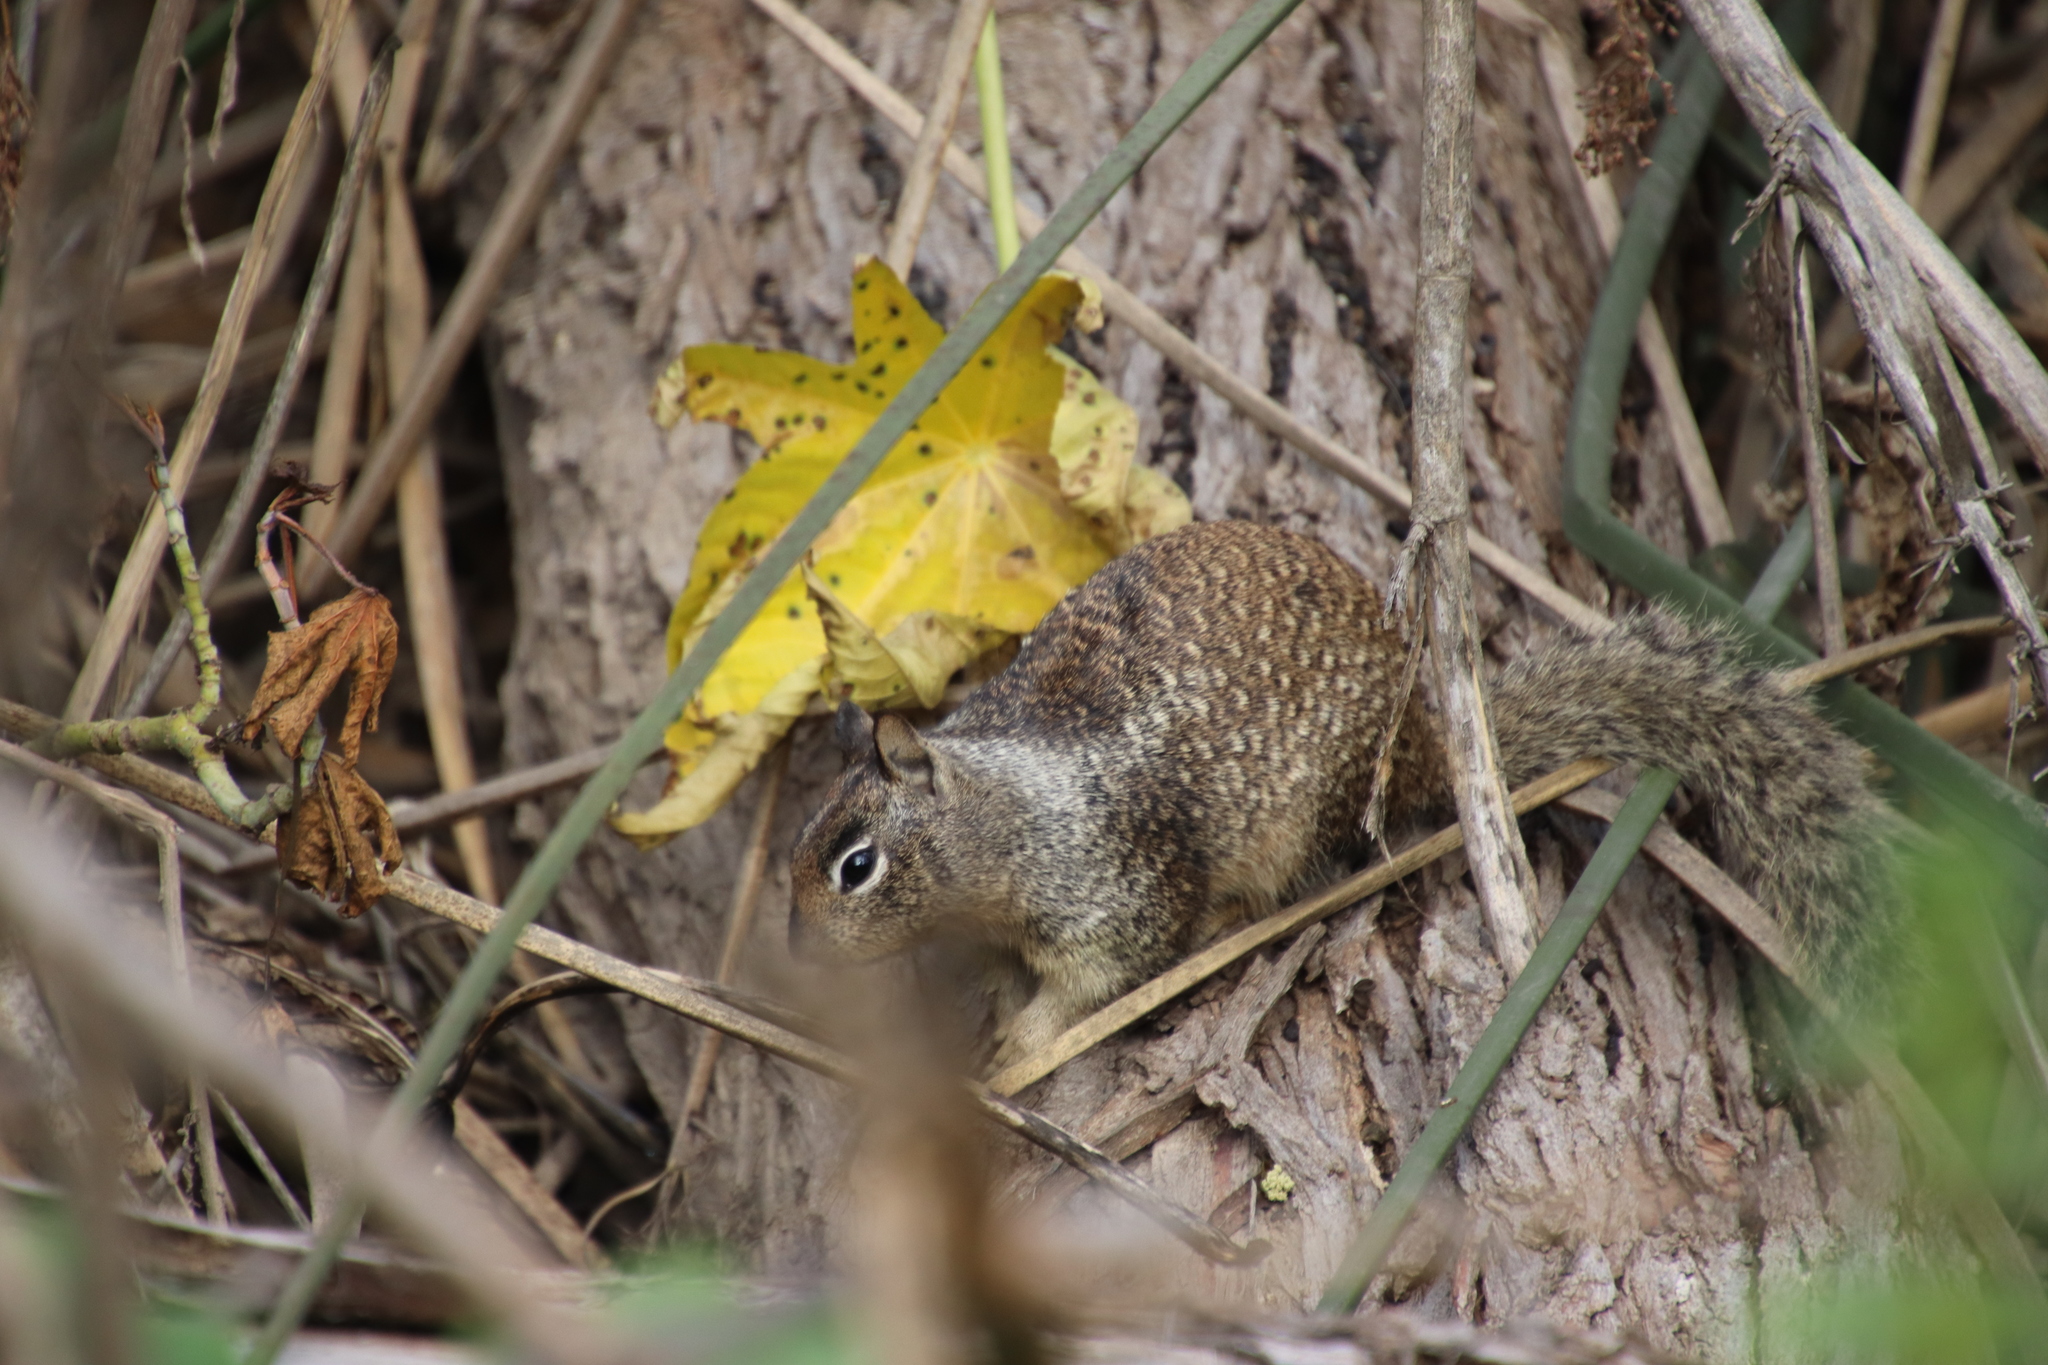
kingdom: Animalia
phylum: Chordata
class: Mammalia
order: Rodentia
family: Sciuridae
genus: Otospermophilus
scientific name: Otospermophilus beecheyi
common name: California ground squirrel
